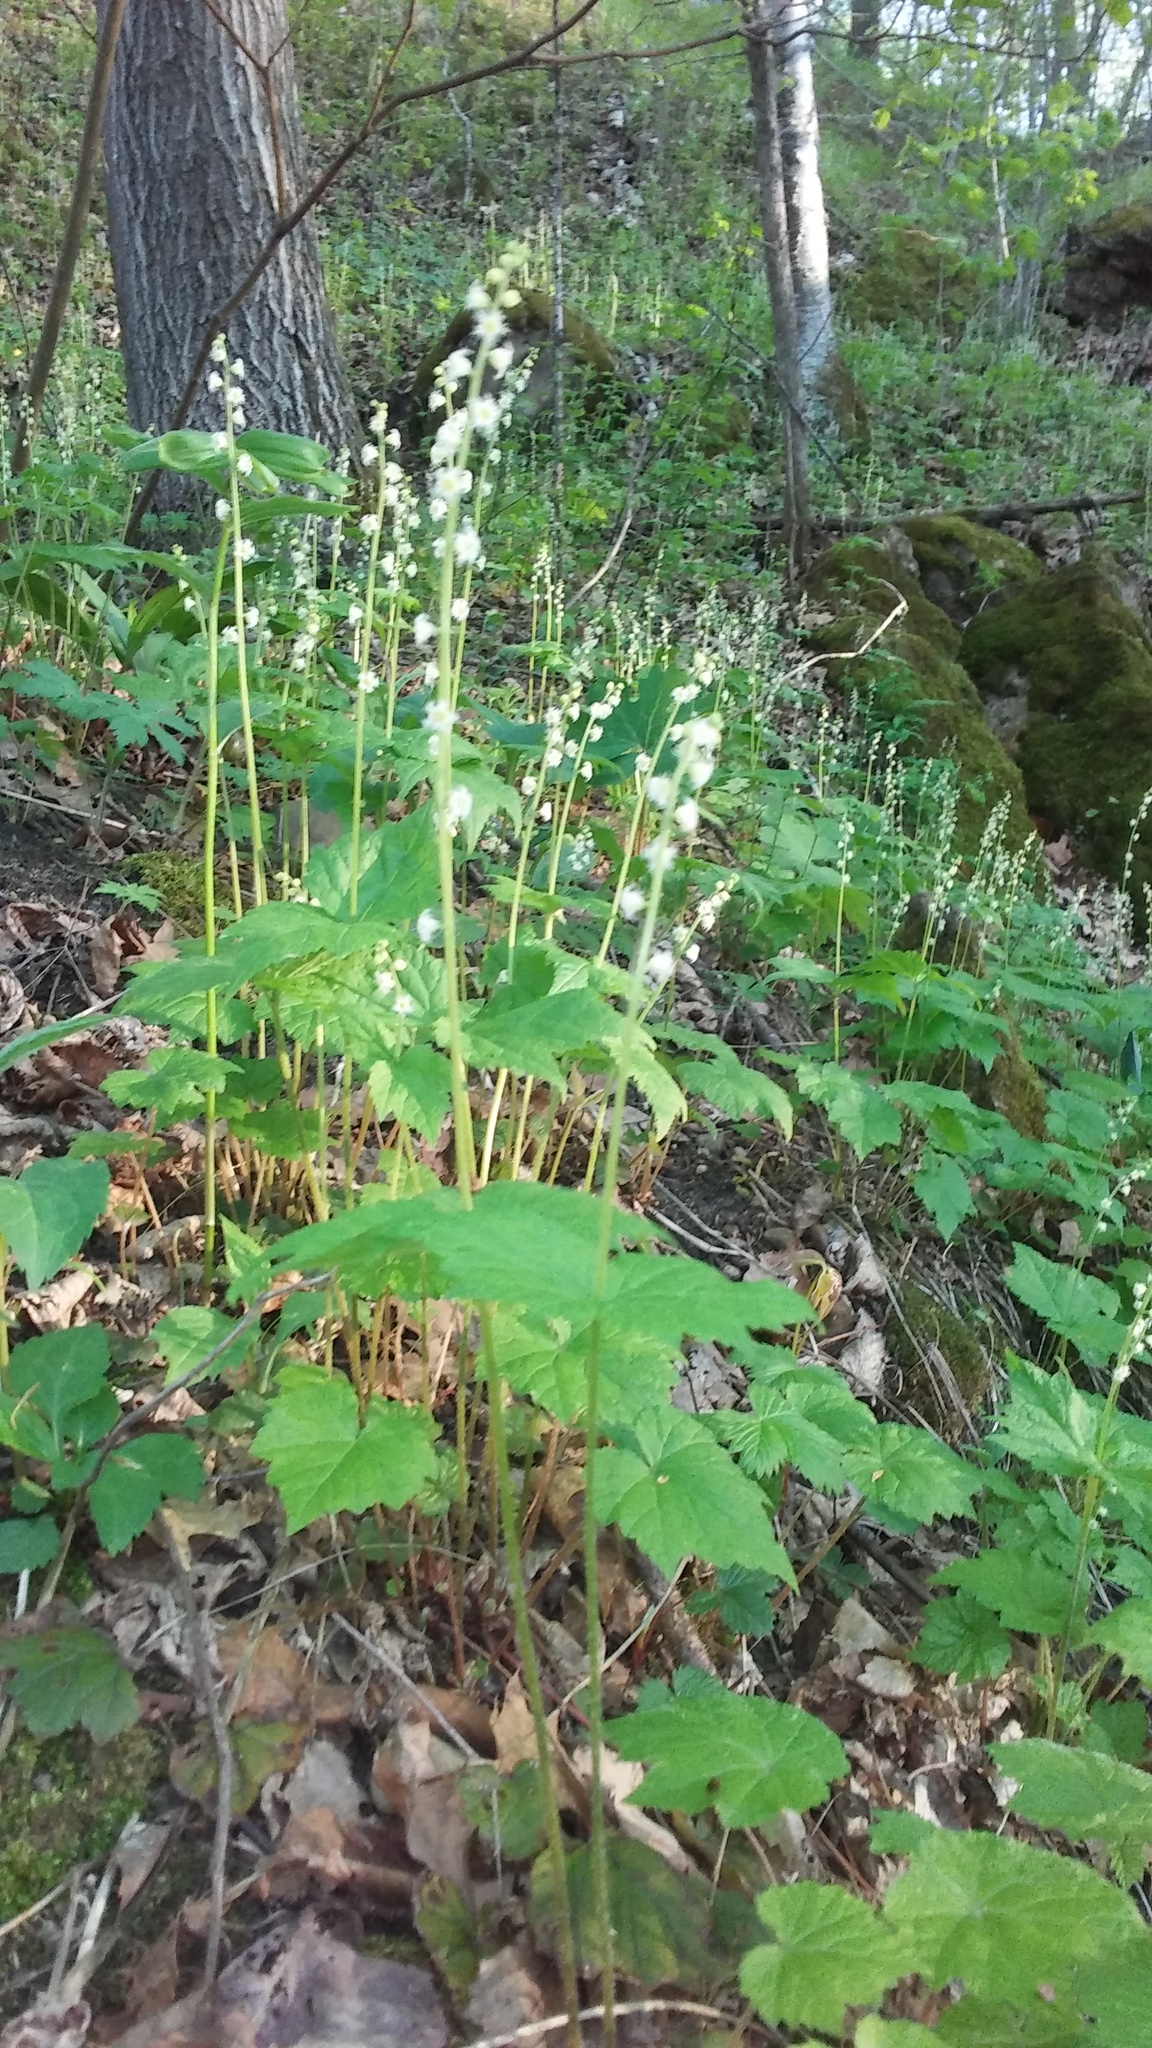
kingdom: Plantae
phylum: Tracheophyta
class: Magnoliopsida
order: Saxifragales
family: Saxifragaceae
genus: Mitella
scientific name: Mitella diphylla
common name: Coolwort
